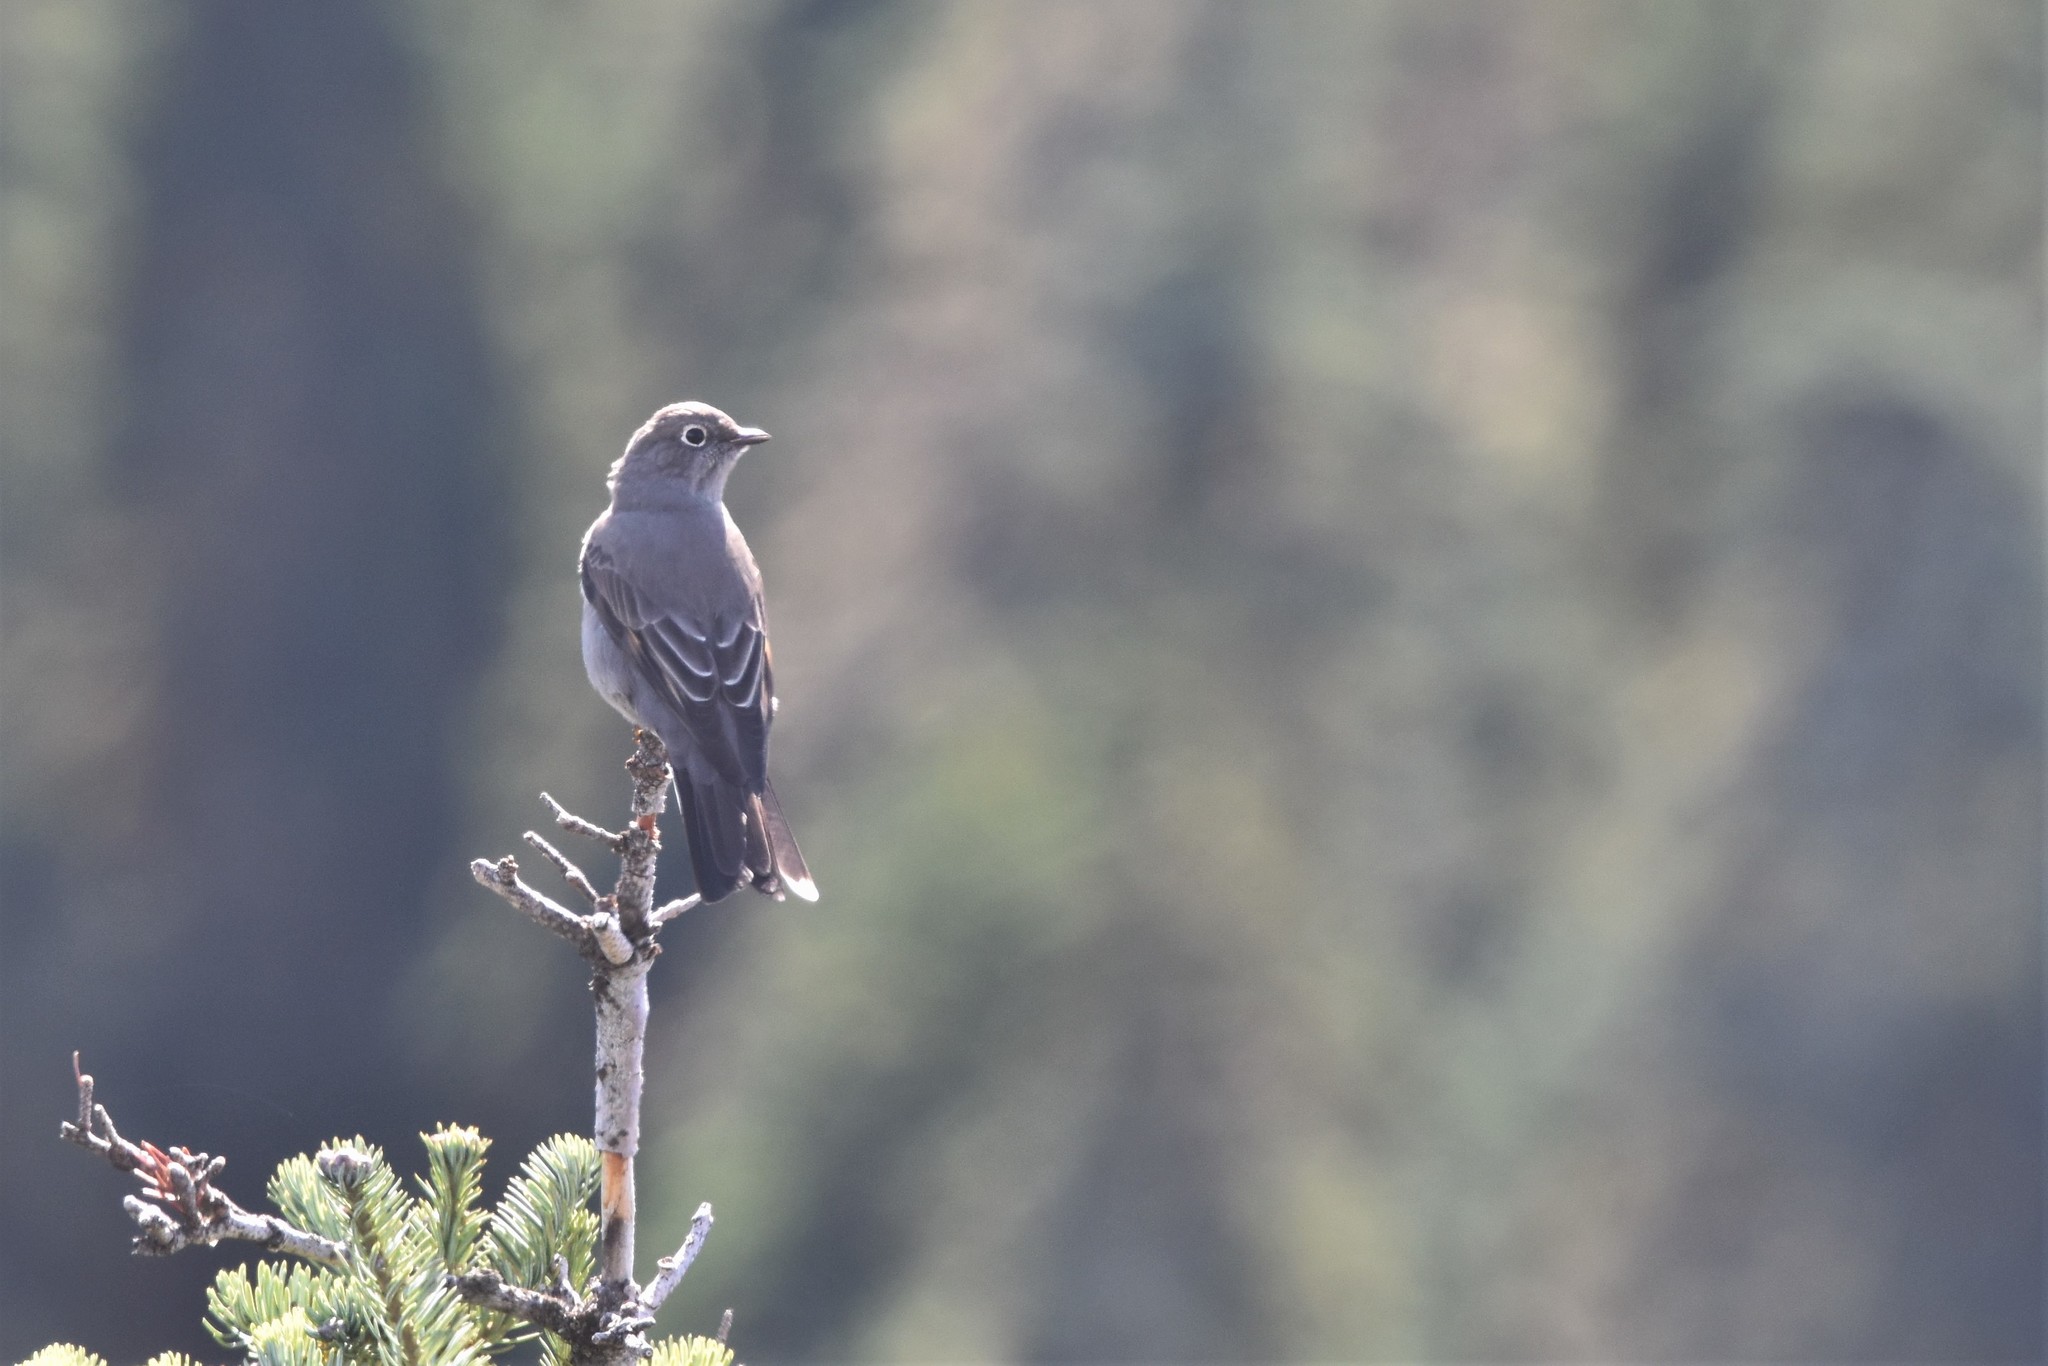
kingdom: Animalia
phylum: Chordata
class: Aves
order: Passeriformes
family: Turdidae
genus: Myadestes
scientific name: Myadestes townsendi
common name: Townsend's solitaire
